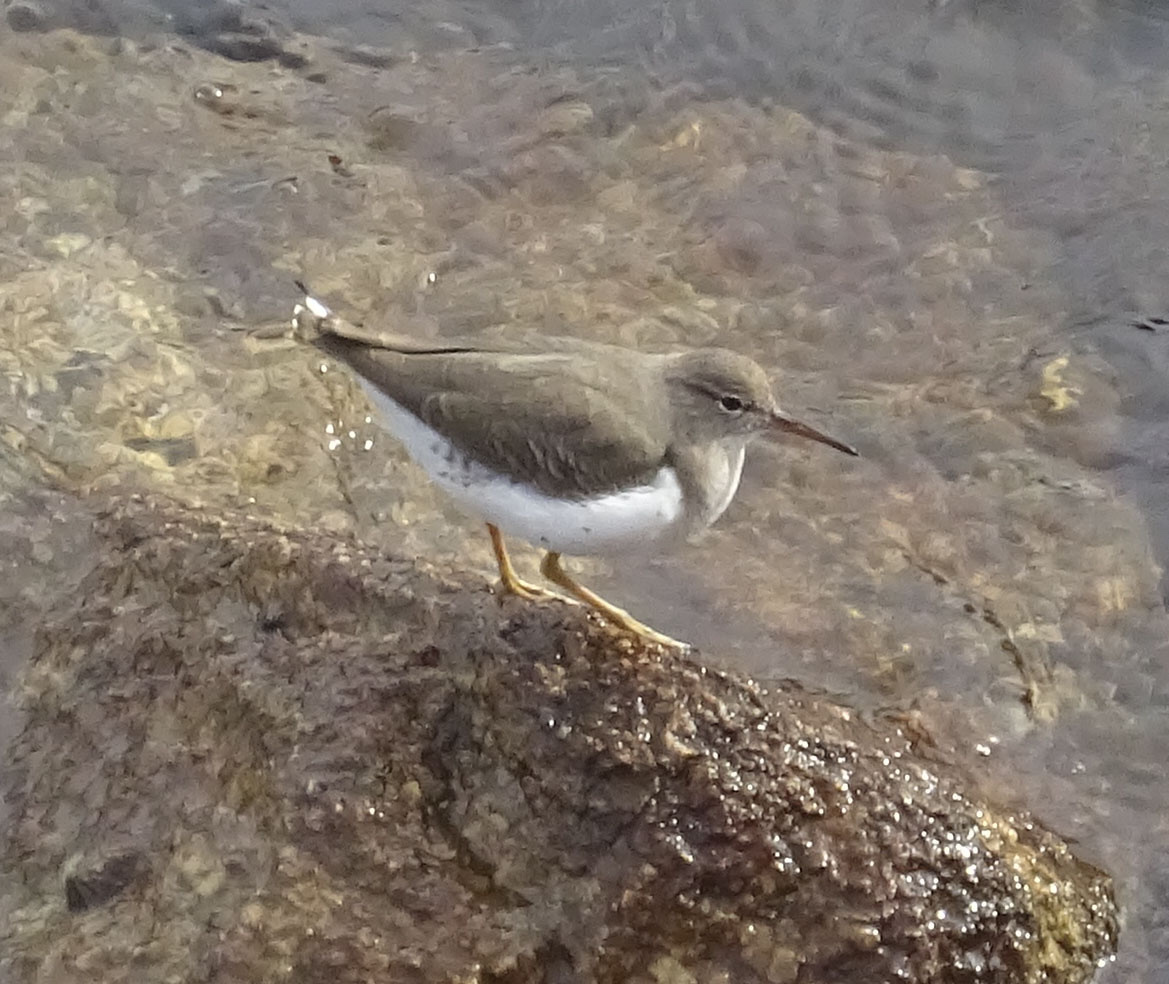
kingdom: Animalia
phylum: Chordata
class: Aves
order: Charadriiformes
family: Scolopacidae
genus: Actitis
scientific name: Actitis macularius
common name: Spotted sandpiper
